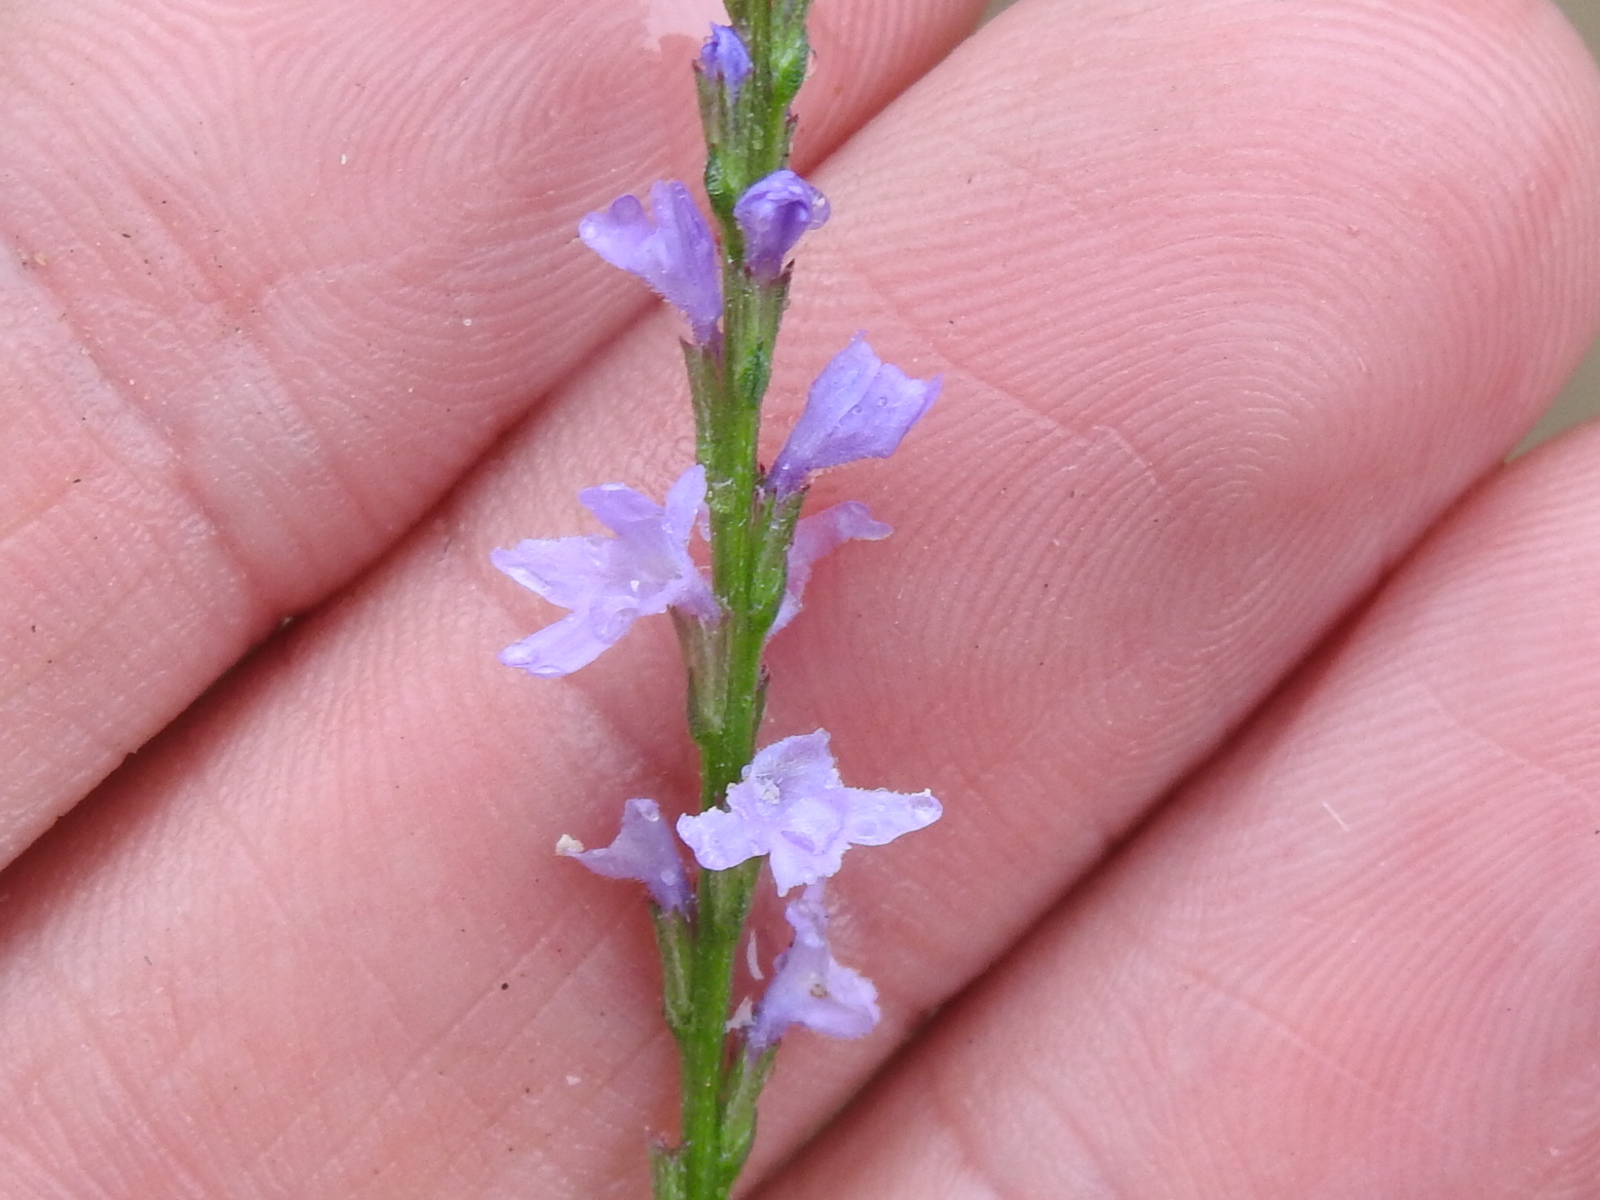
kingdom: Plantae
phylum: Tracheophyta
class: Magnoliopsida
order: Lamiales
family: Verbenaceae
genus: Verbena
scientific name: Verbena halei
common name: Texas vervain
